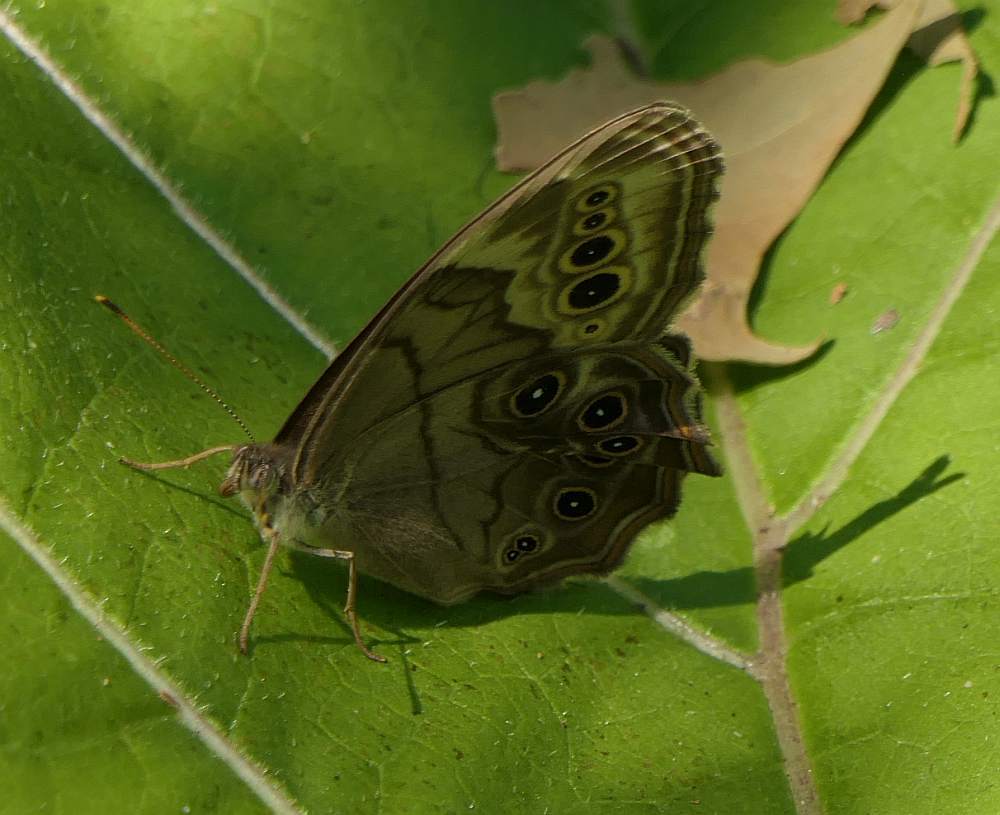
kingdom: Animalia
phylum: Arthropoda
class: Insecta
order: Lepidoptera
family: Nymphalidae
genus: Lethe
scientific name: Lethe anthedon
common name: Northern pearly-eye
